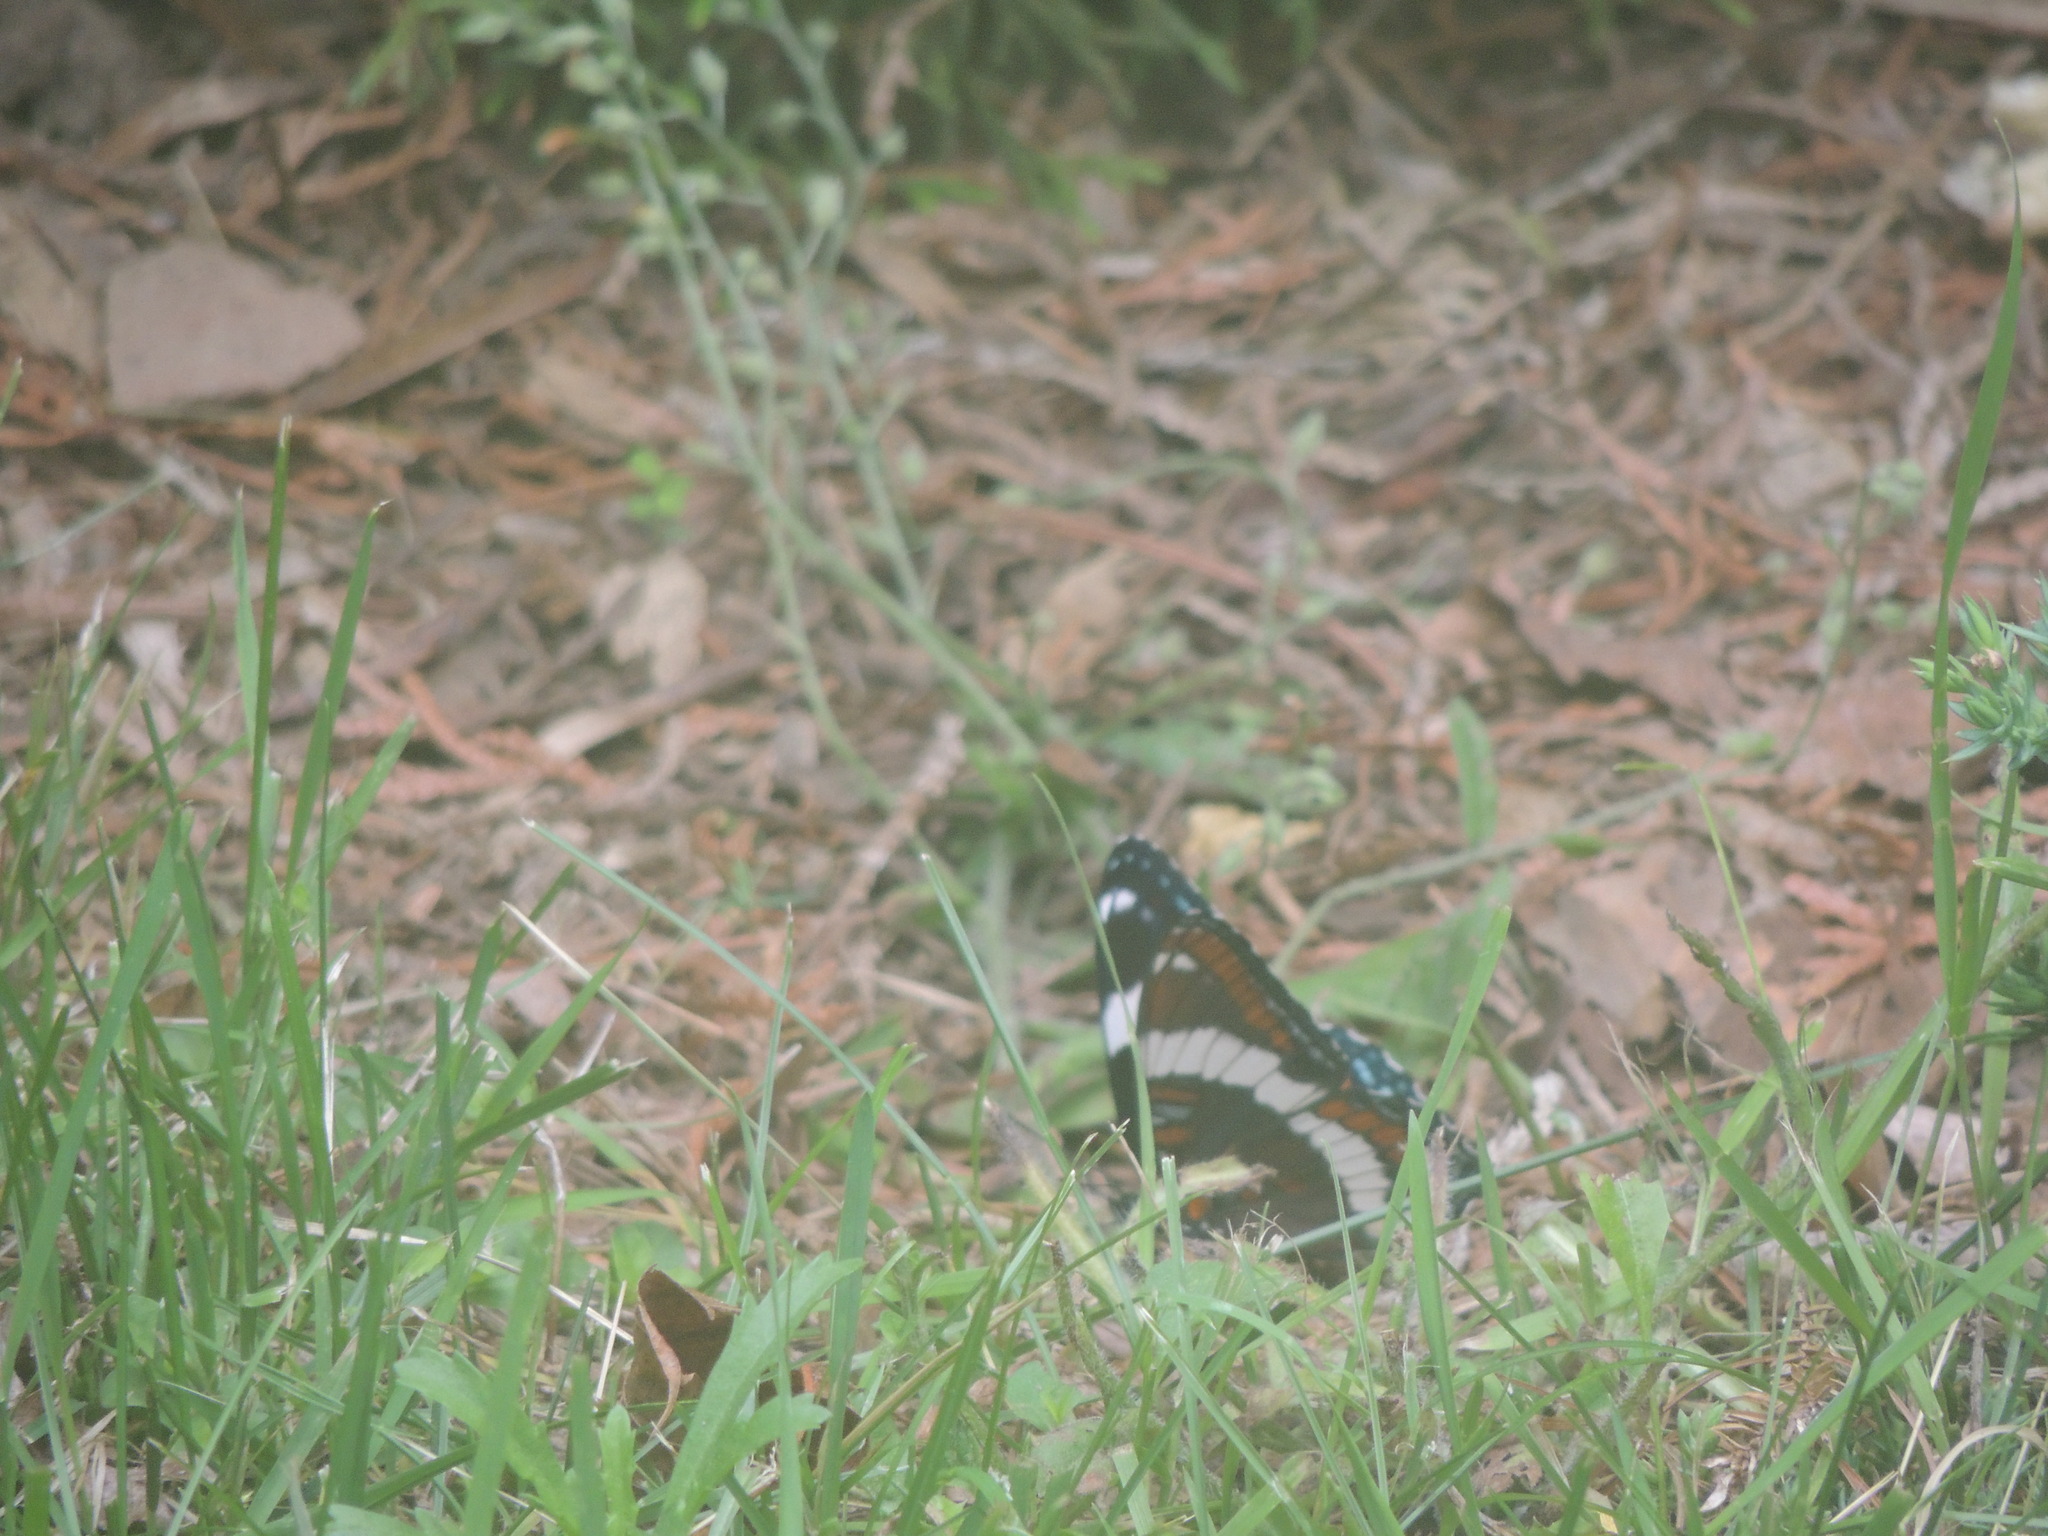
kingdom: Animalia
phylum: Arthropoda
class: Insecta
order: Lepidoptera
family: Nymphalidae
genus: Limenitis
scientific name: Limenitis arthemis
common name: Red-spotted admiral
